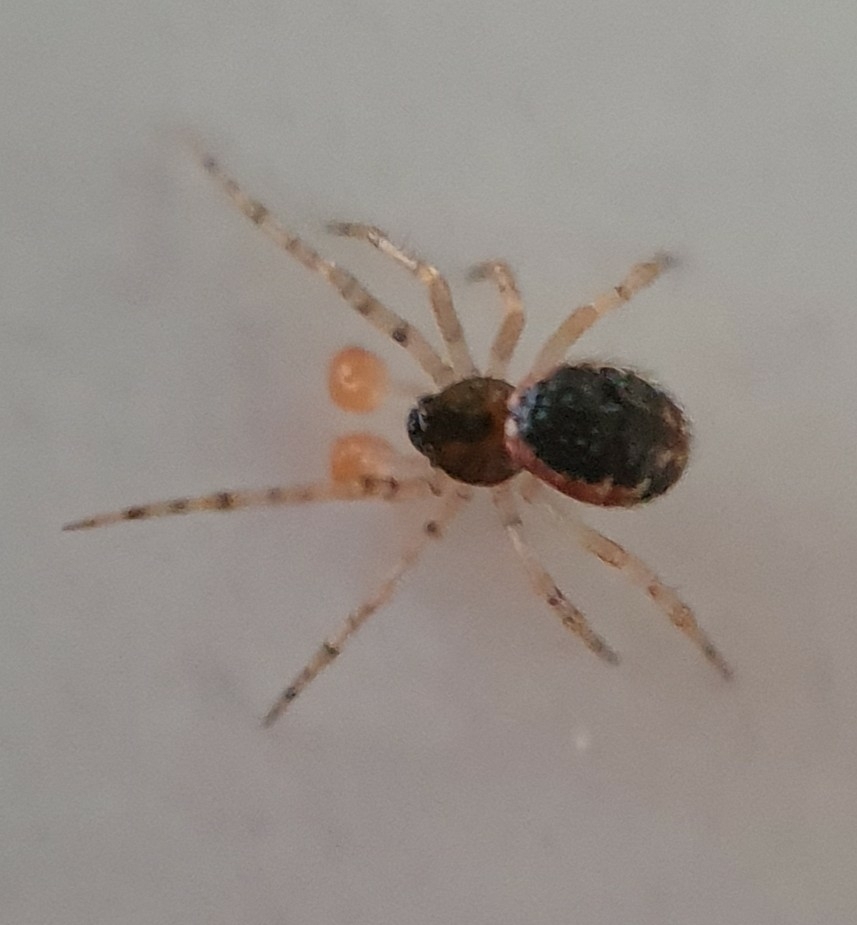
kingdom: Animalia
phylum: Arthropoda
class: Arachnida
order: Araneae
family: Theridiidae
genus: Sardinidion
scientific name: Sardinidion blackwalli
